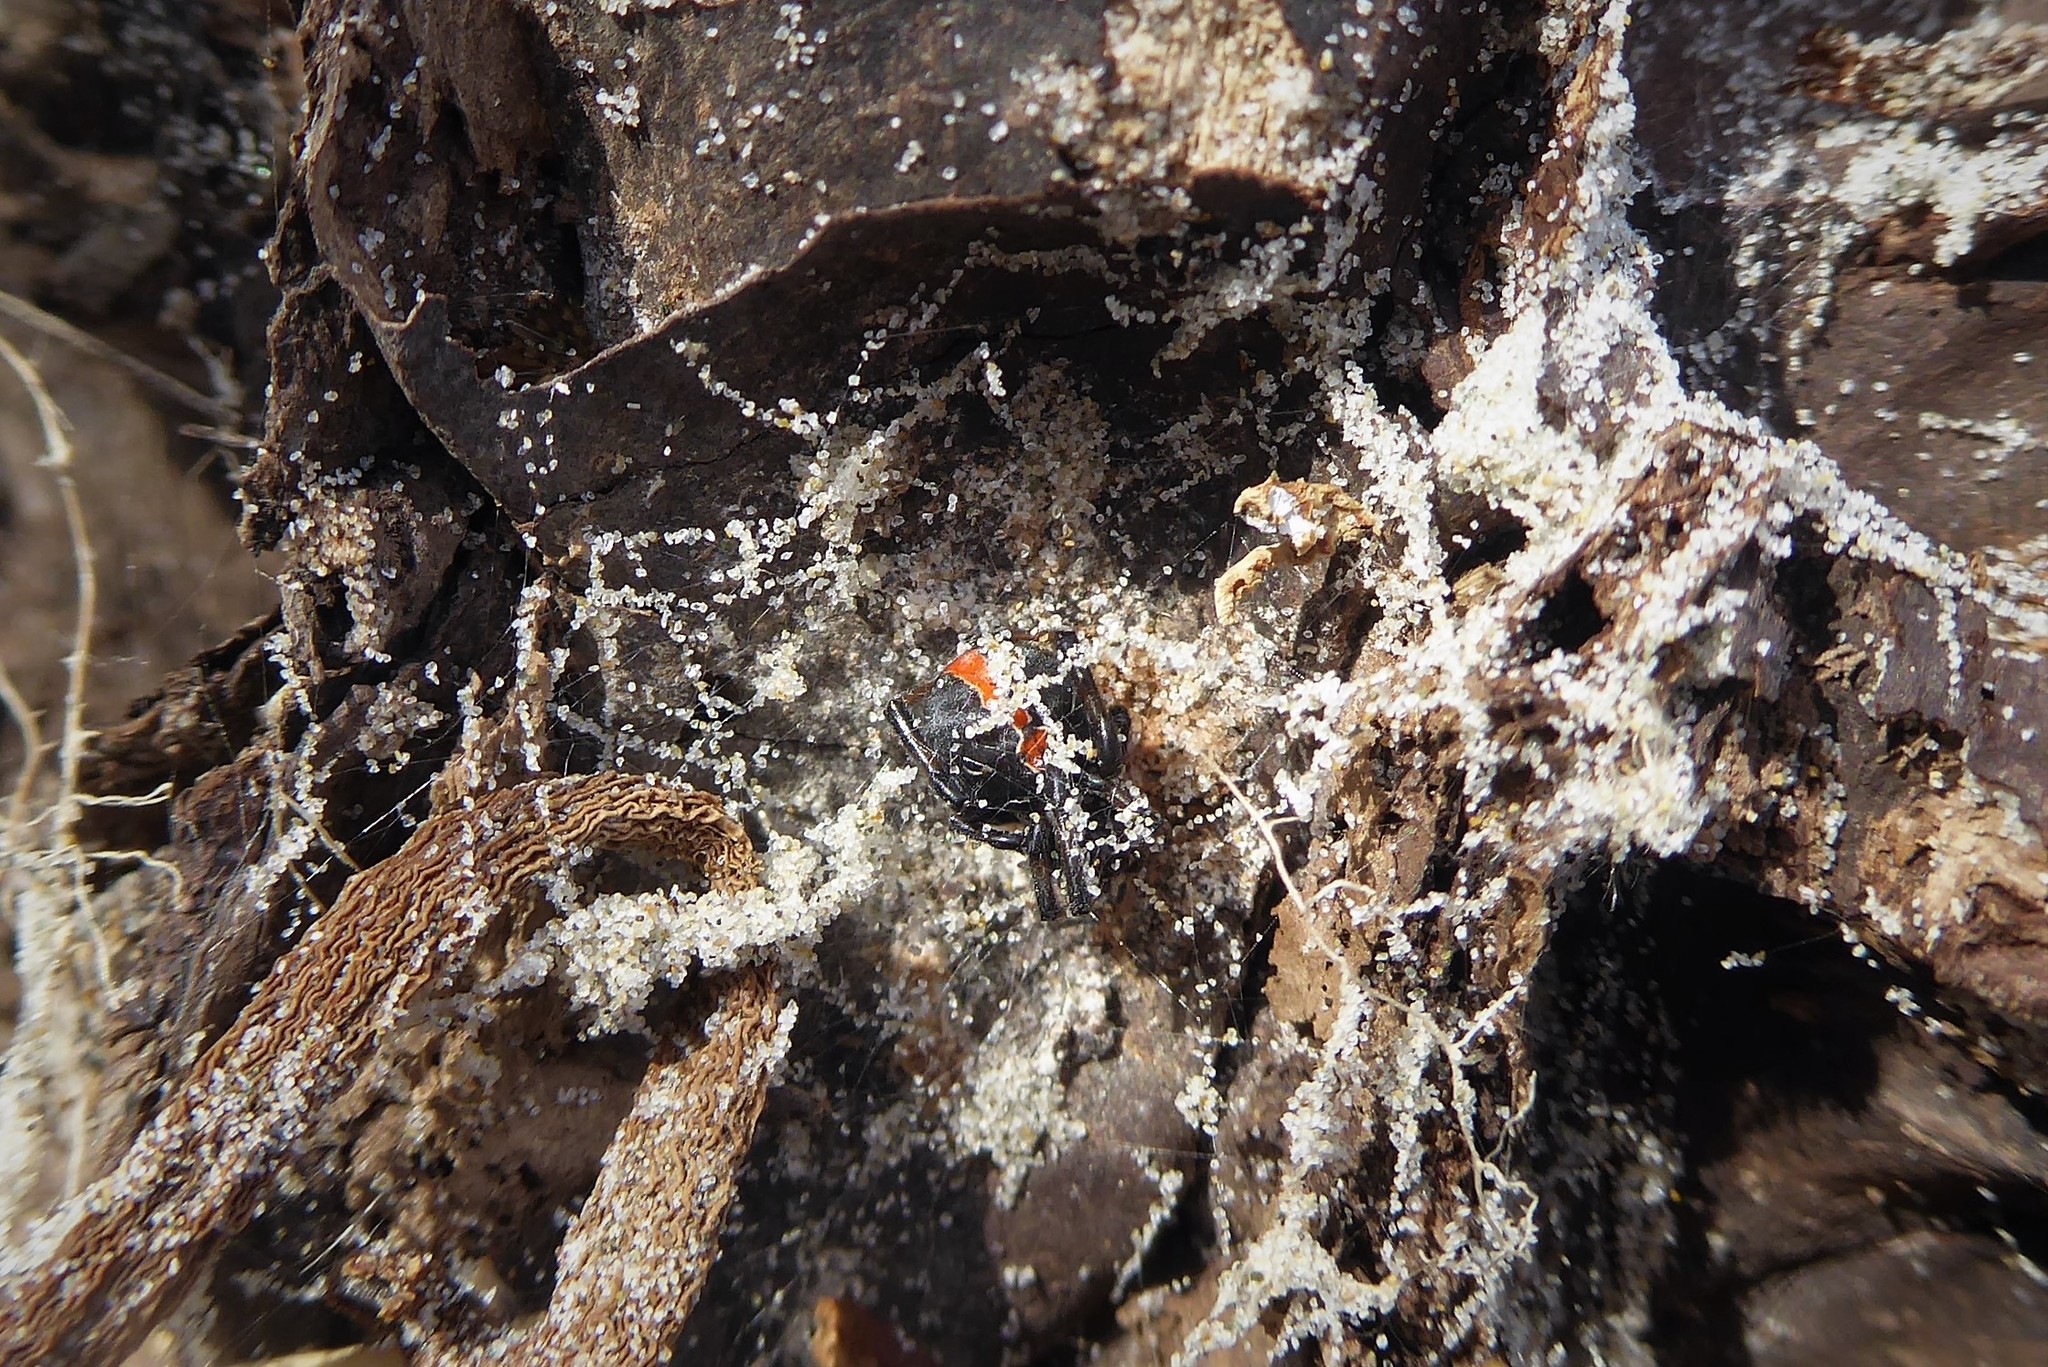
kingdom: Animalia
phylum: Arthropoda
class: Arachnida
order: Araneae
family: Theridiidae
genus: Latrodectus
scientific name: Latrodectus katipo
